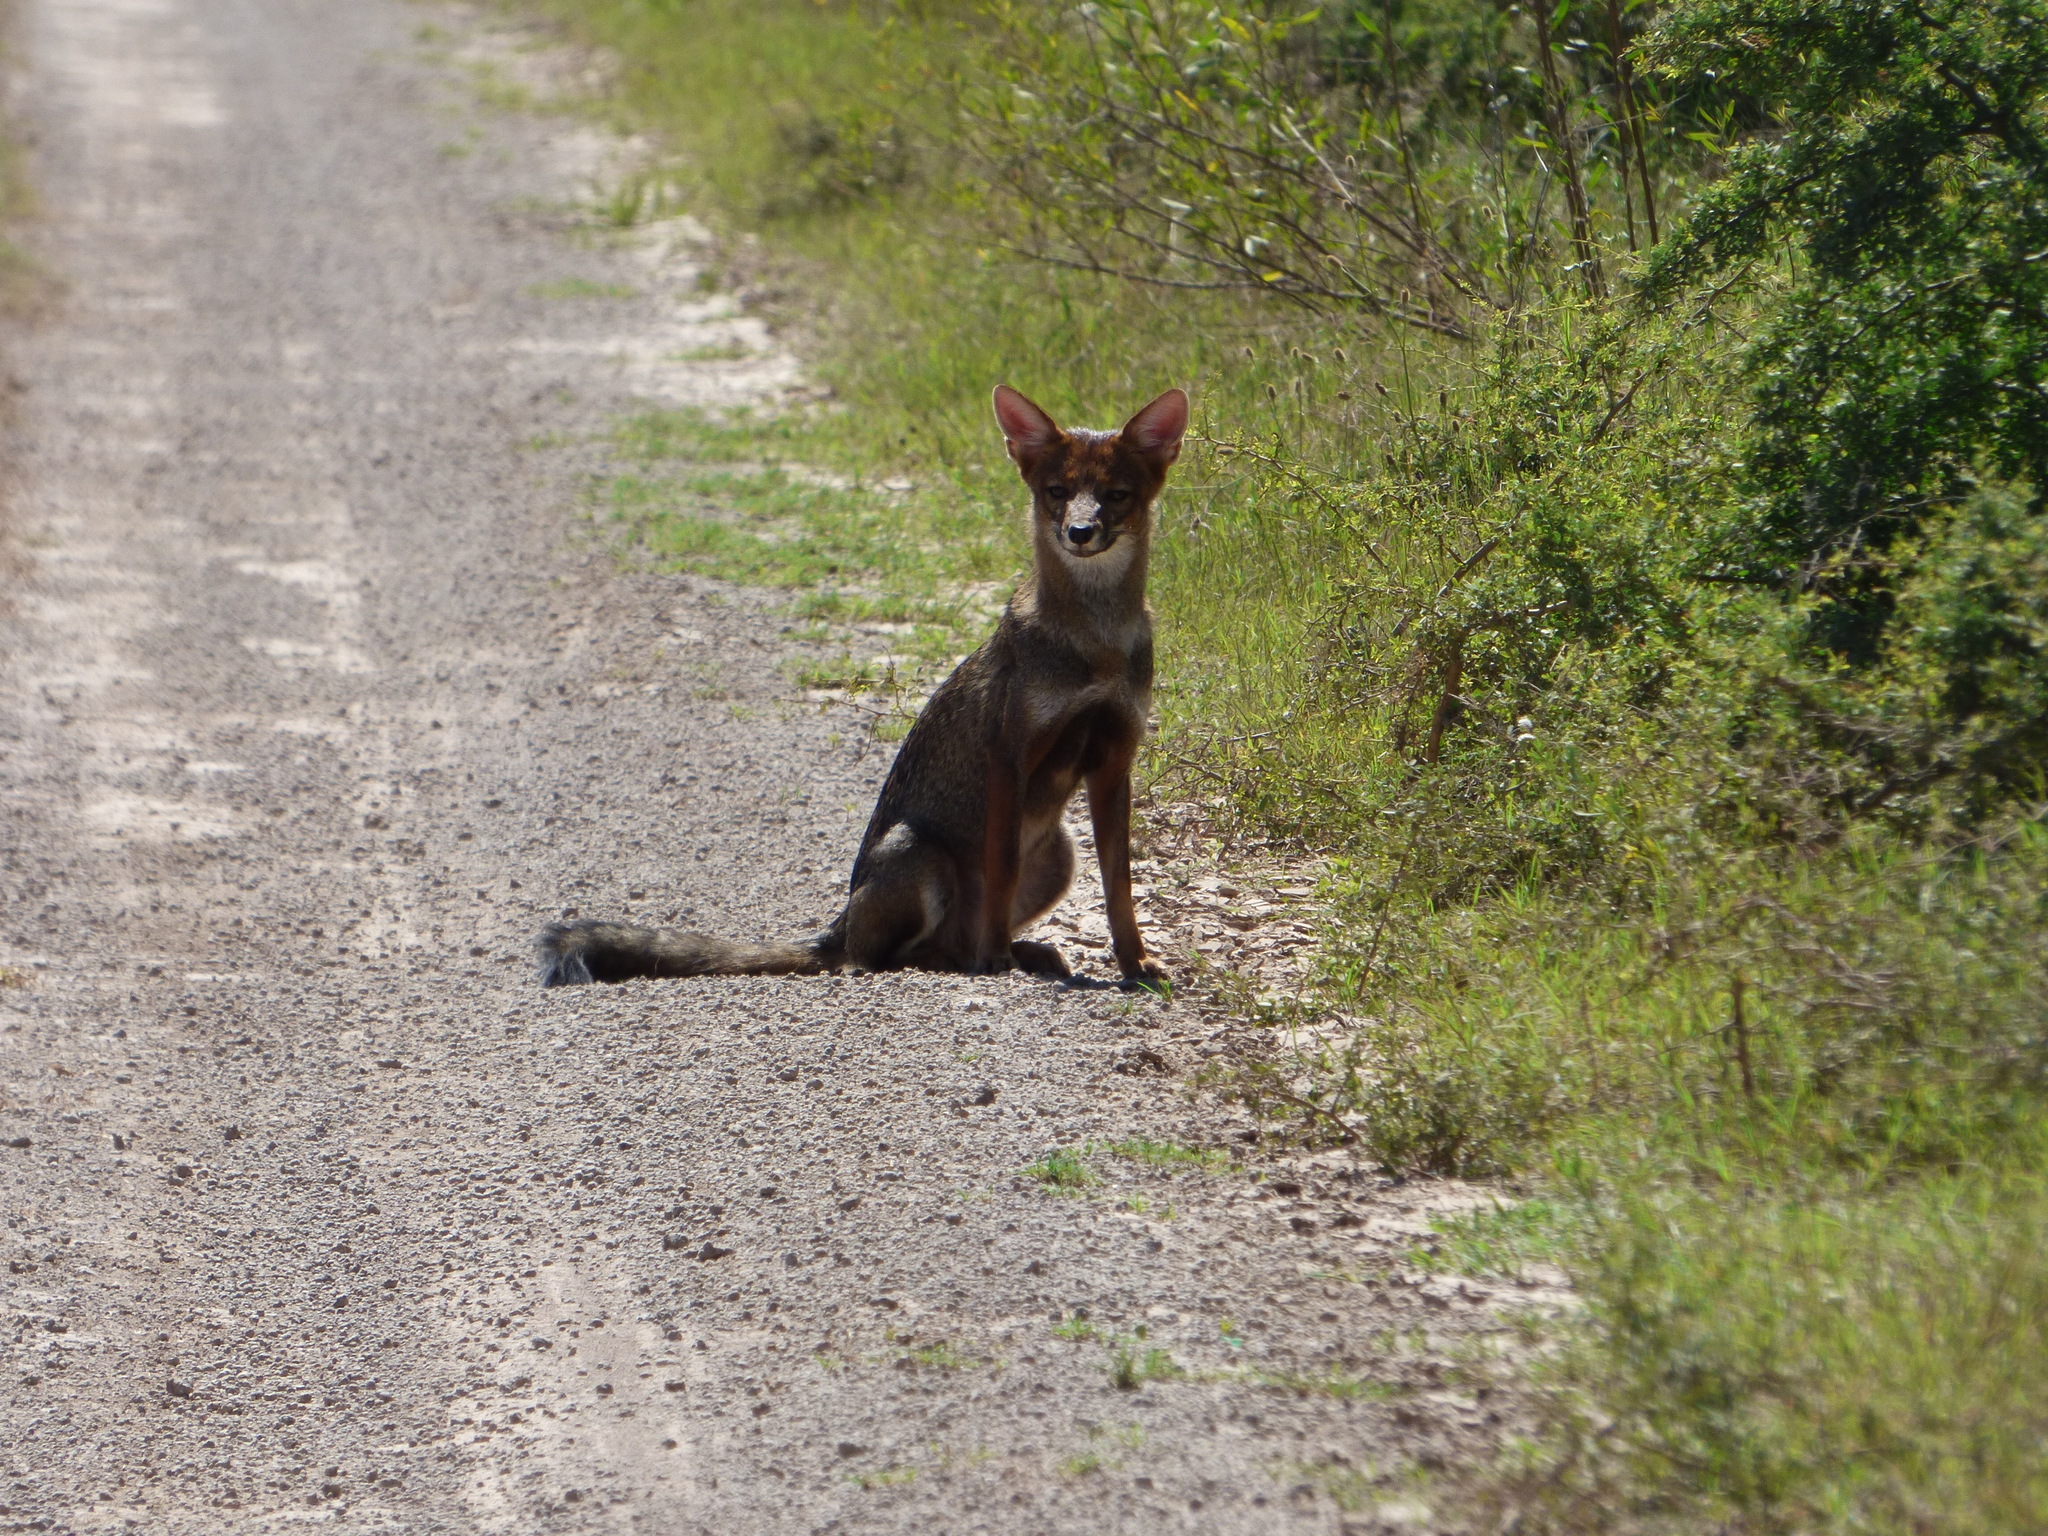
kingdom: Animalia
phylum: Chordata
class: Mammalia
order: Carnivora
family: Canidae
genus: Lycalopex
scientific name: Lycalopex gymnocercus
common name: Pampas fox
